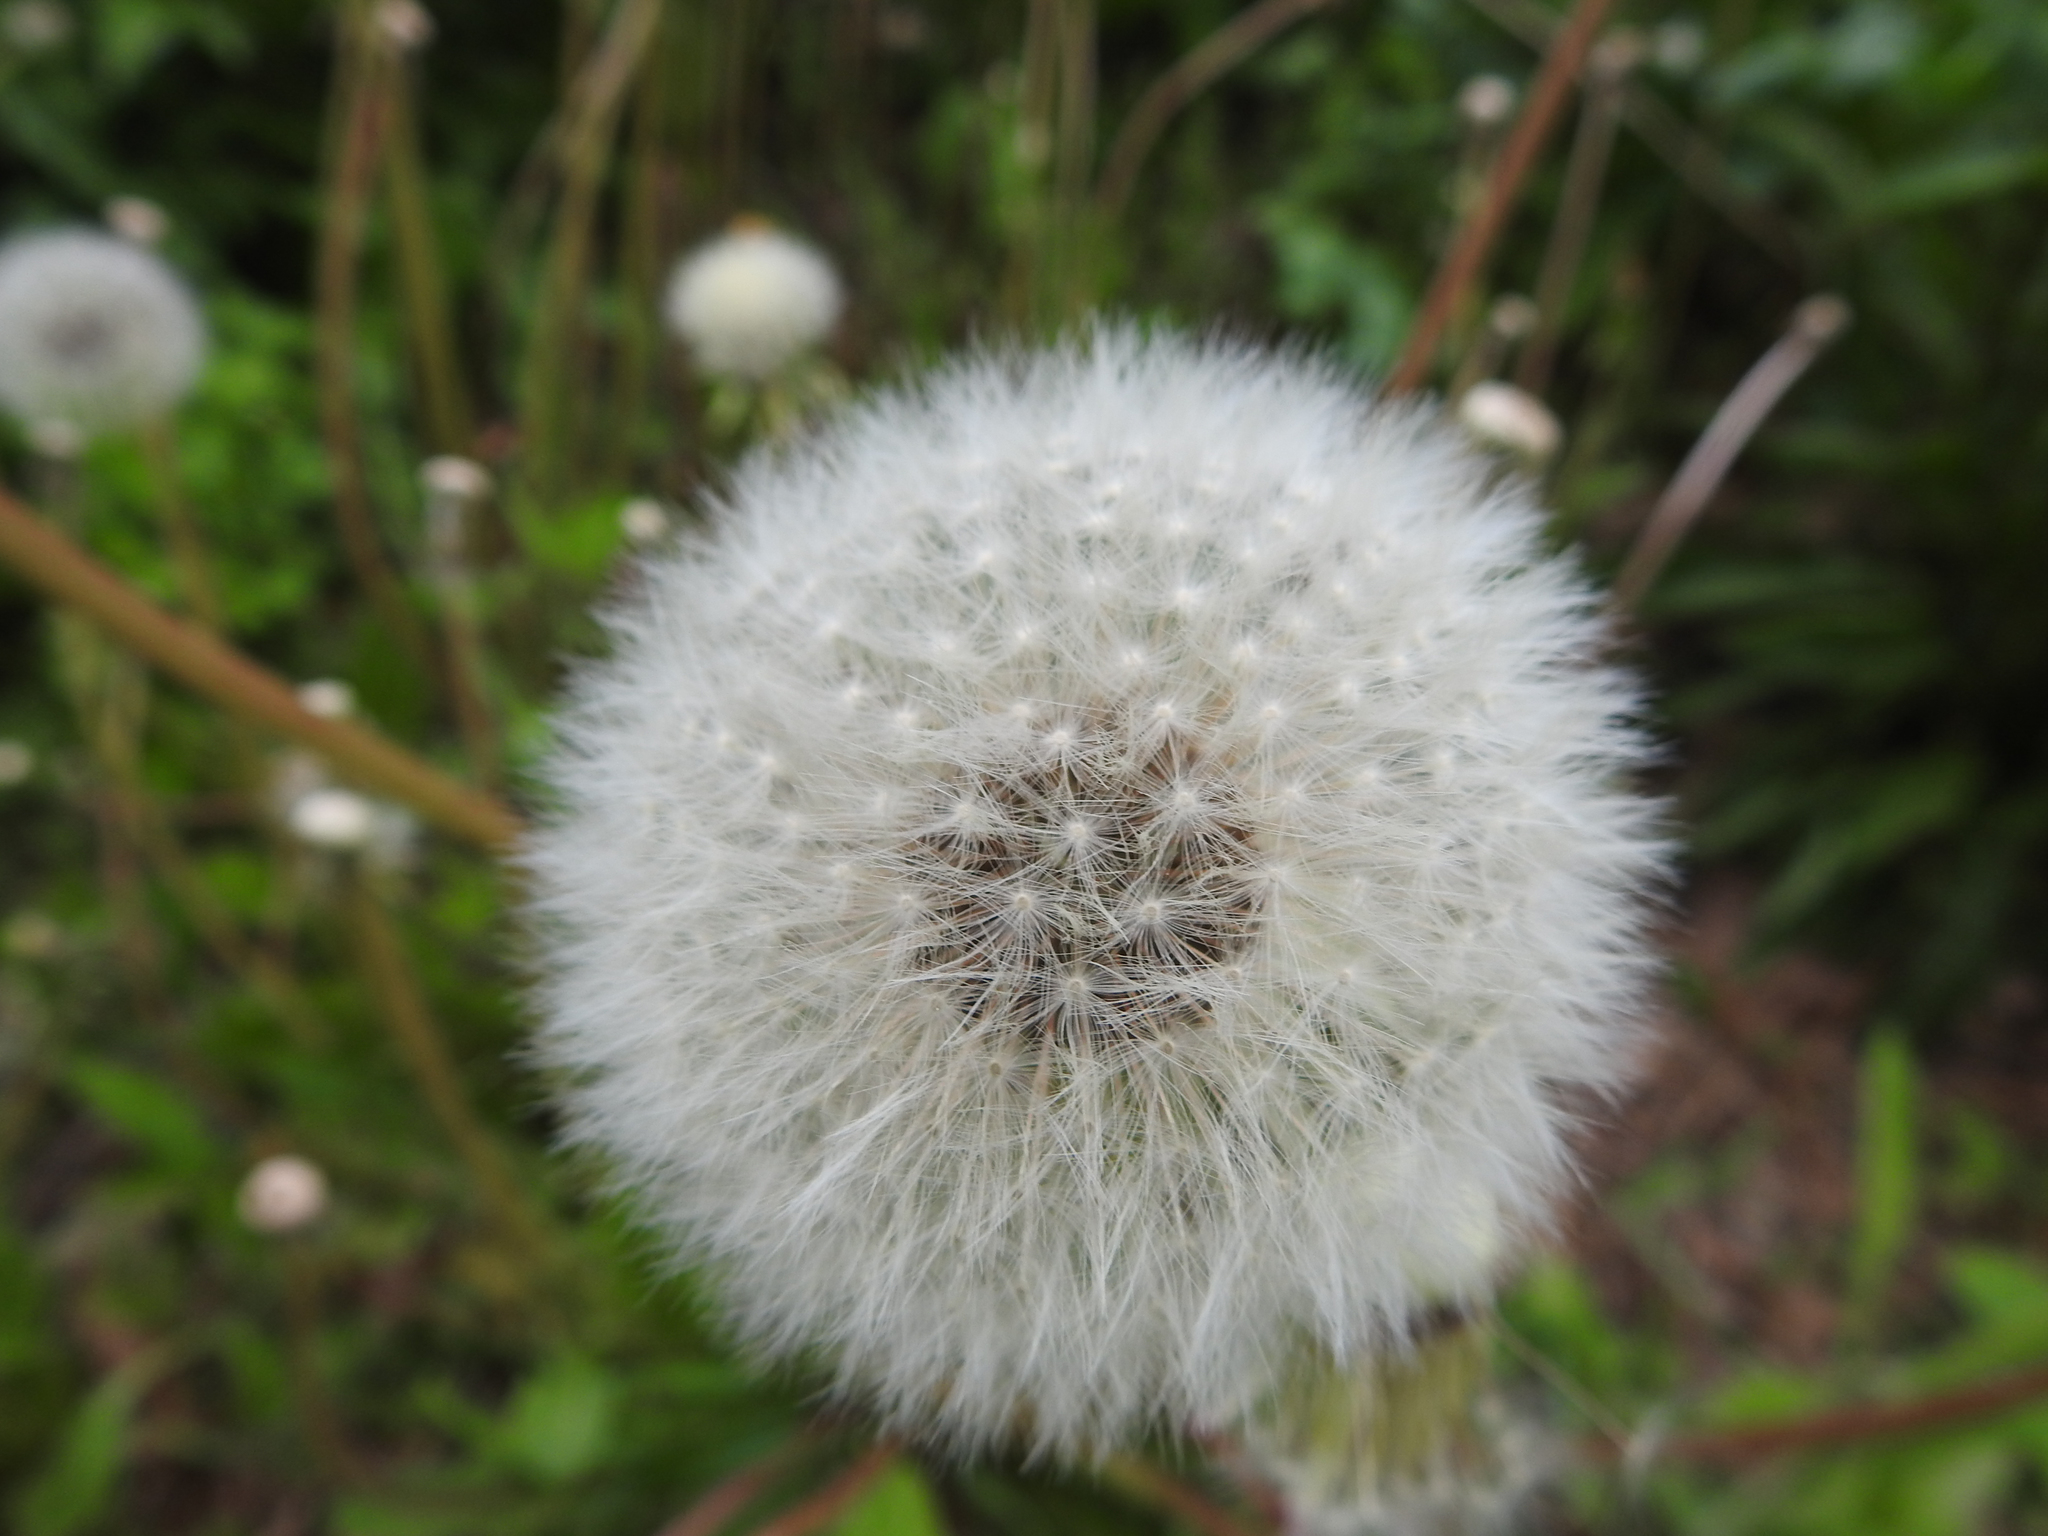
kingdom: Plantae
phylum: Tracheophyta
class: Magnoliopsida
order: Asterales
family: Asteraceae
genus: Taraxacum
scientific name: Taraxacum officinale
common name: Common dandelion
